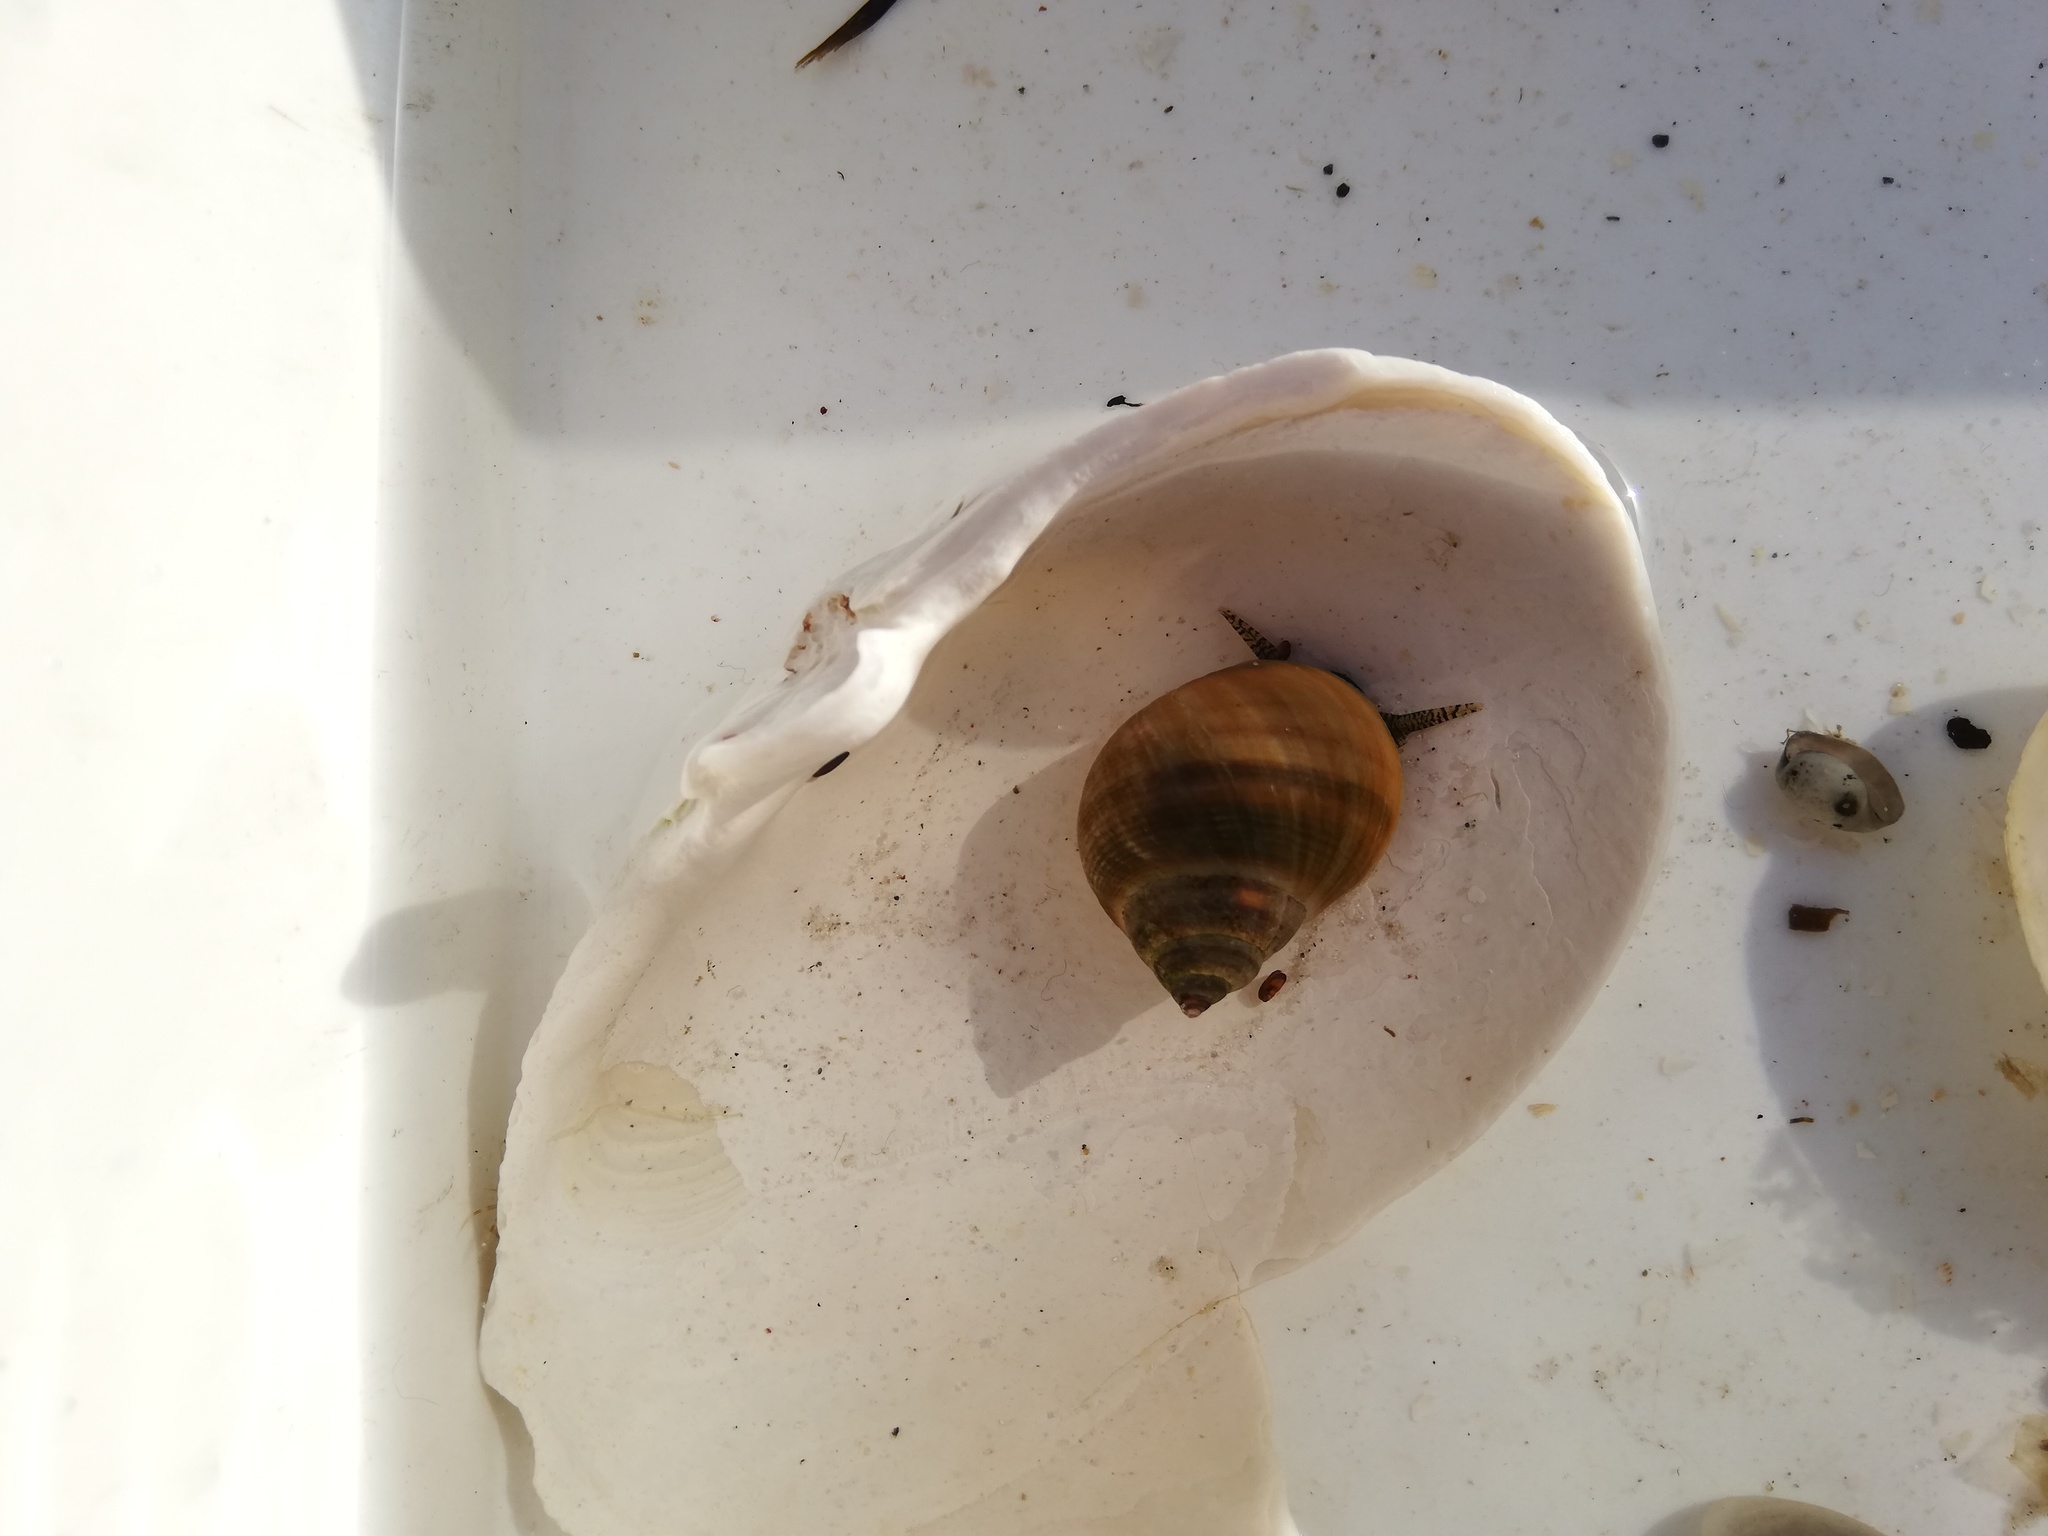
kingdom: Animalia
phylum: Mollusca
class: Gastropoda
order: Littorinimorpha
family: Littorinidae
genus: Littorina
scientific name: Littorina littorea
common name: Common periwinkle
